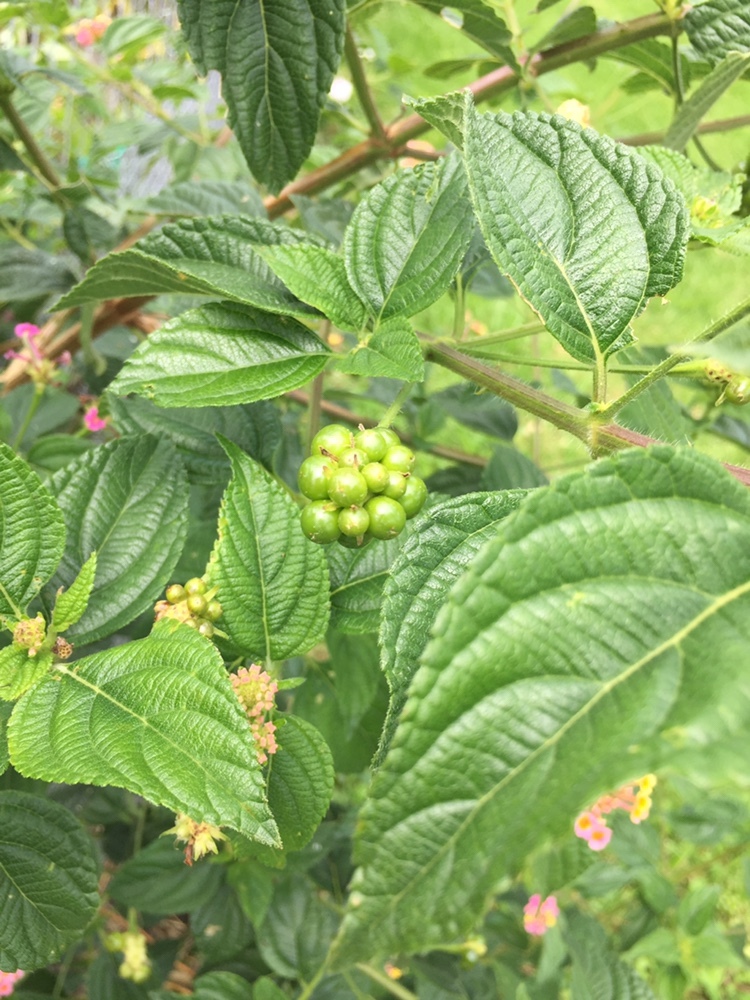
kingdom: Animalia
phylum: Arthropoda
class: Insecta
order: Lepidoptera
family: Pterophoridae
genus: Lantanophaga
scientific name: Lantanophaga pusillidactylus
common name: Moth
